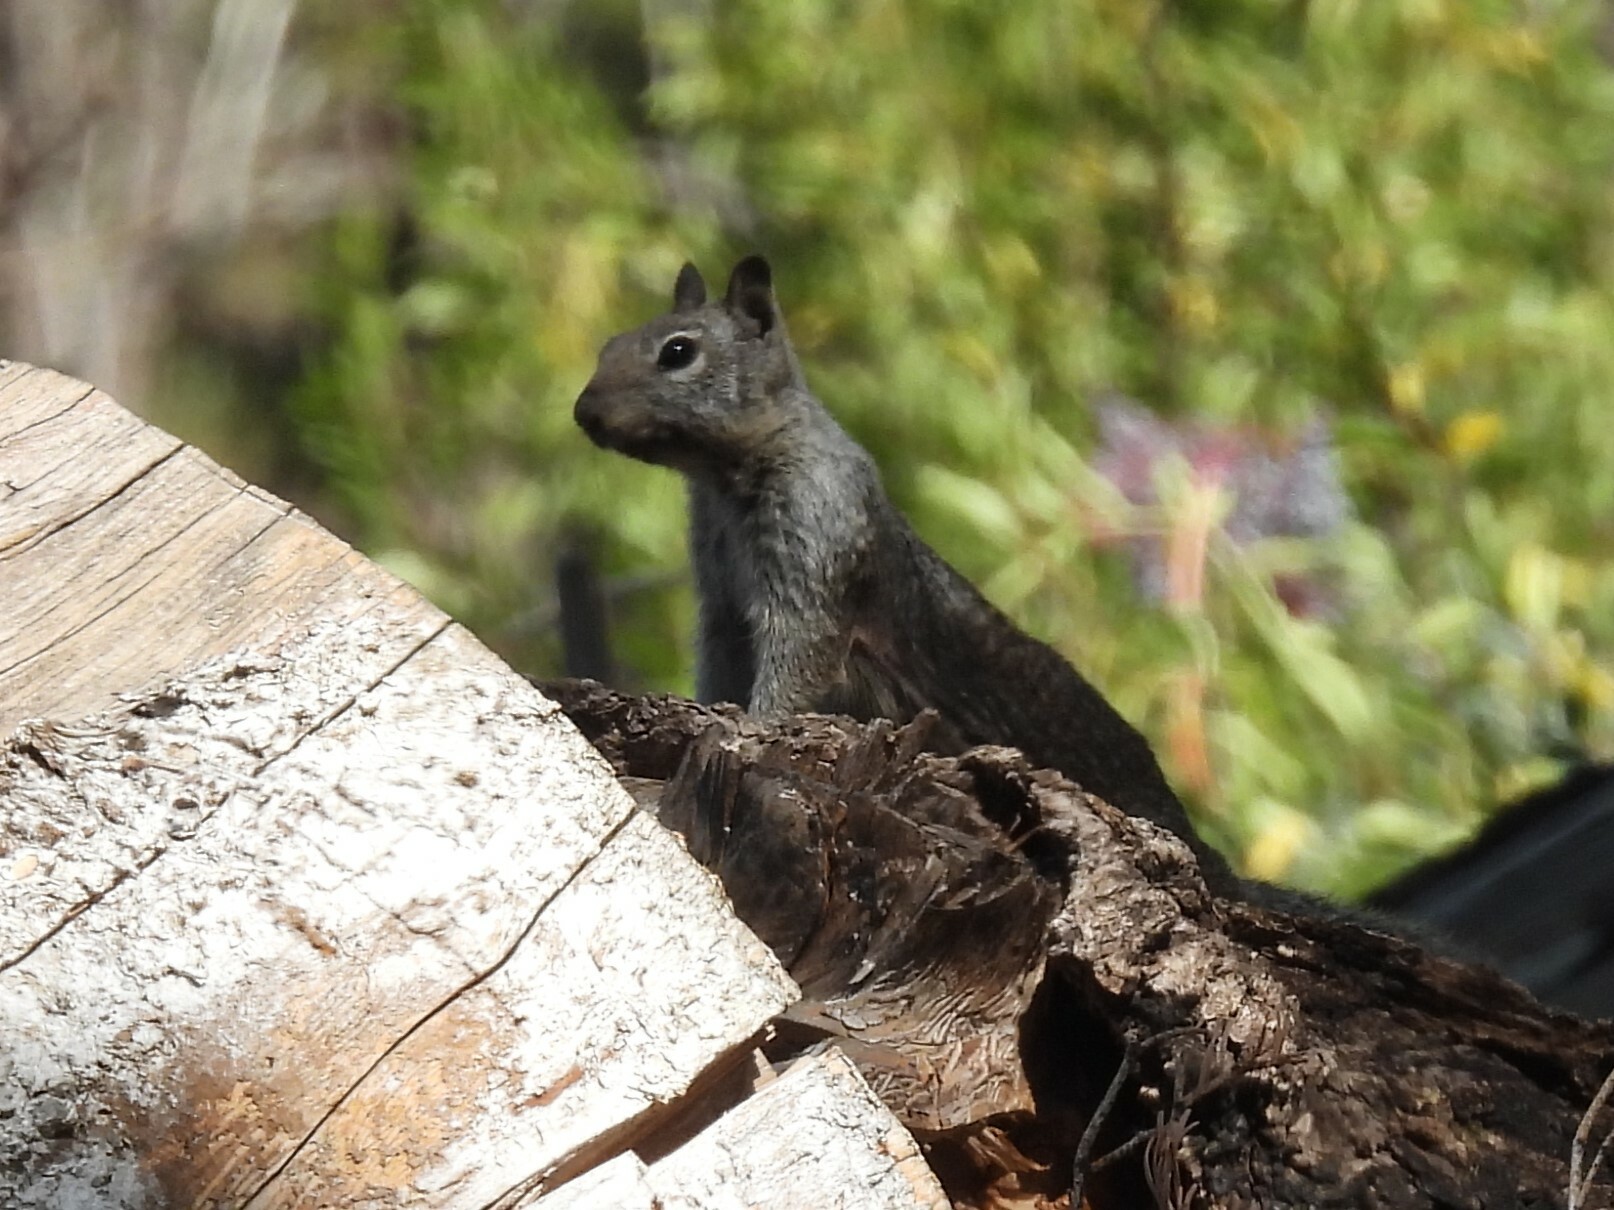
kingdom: Animalia
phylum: Chordata
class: Mammalia
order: Rodentia
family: Sciuridae
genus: Otospermophilus
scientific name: Otospermophilus beecheyi
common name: California ground squirrel
